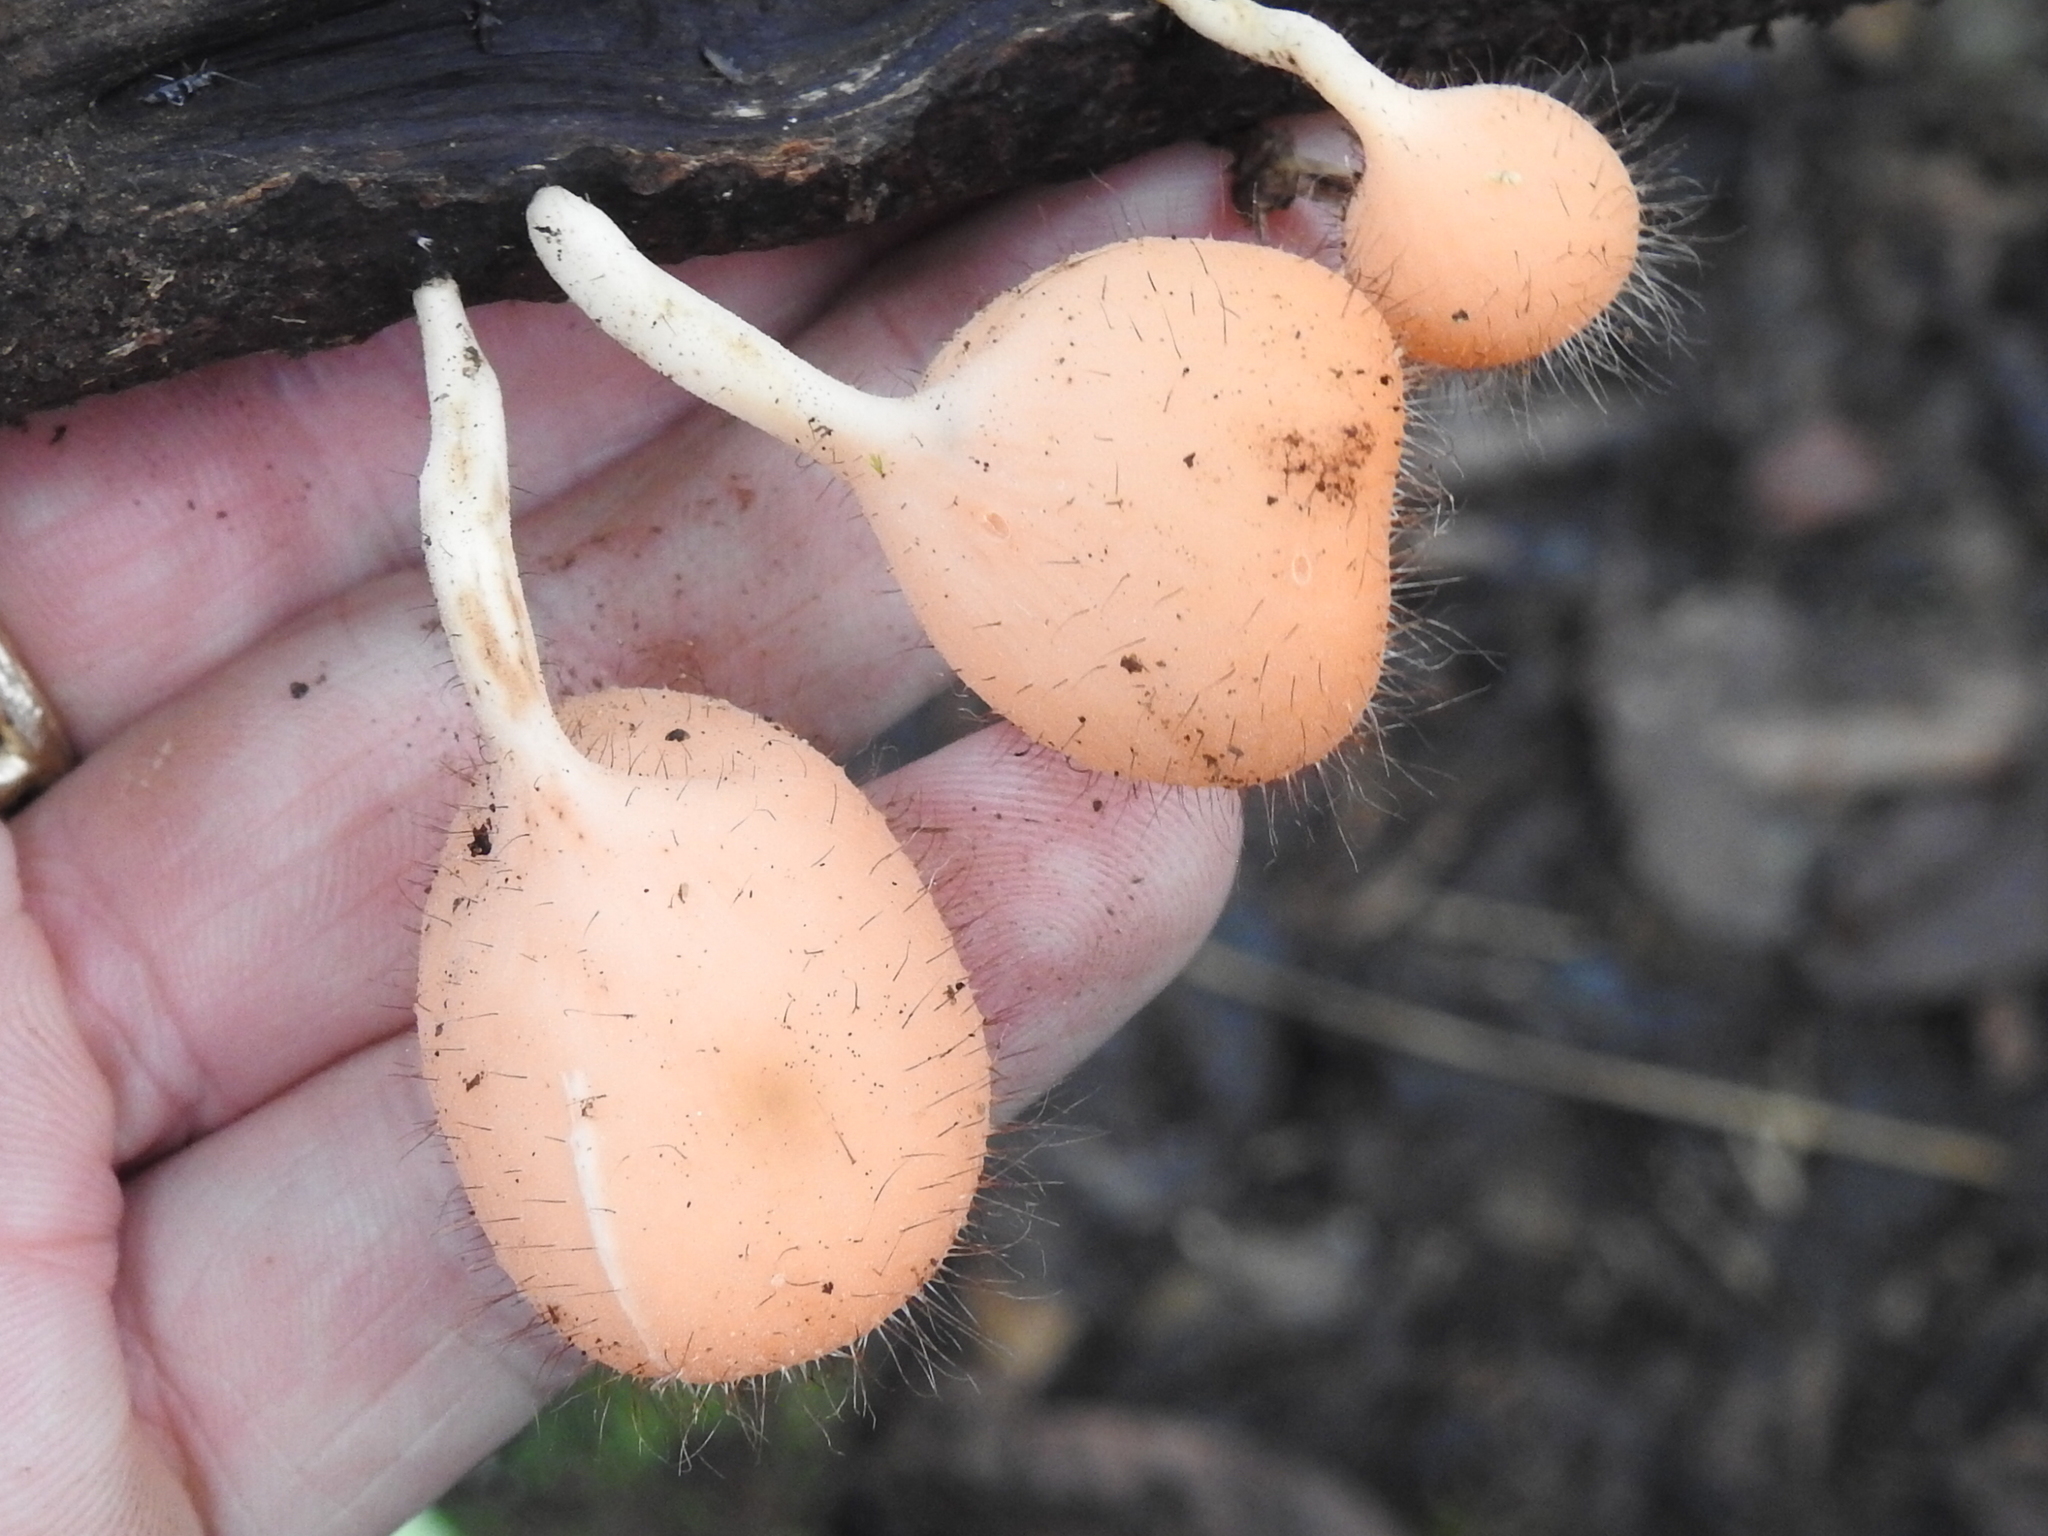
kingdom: Fungi
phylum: Ascomycota
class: Pezizomycetes
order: Pezizales
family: Sarcoscyphaceae
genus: Cookeina
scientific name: Cookeina tricholoma
